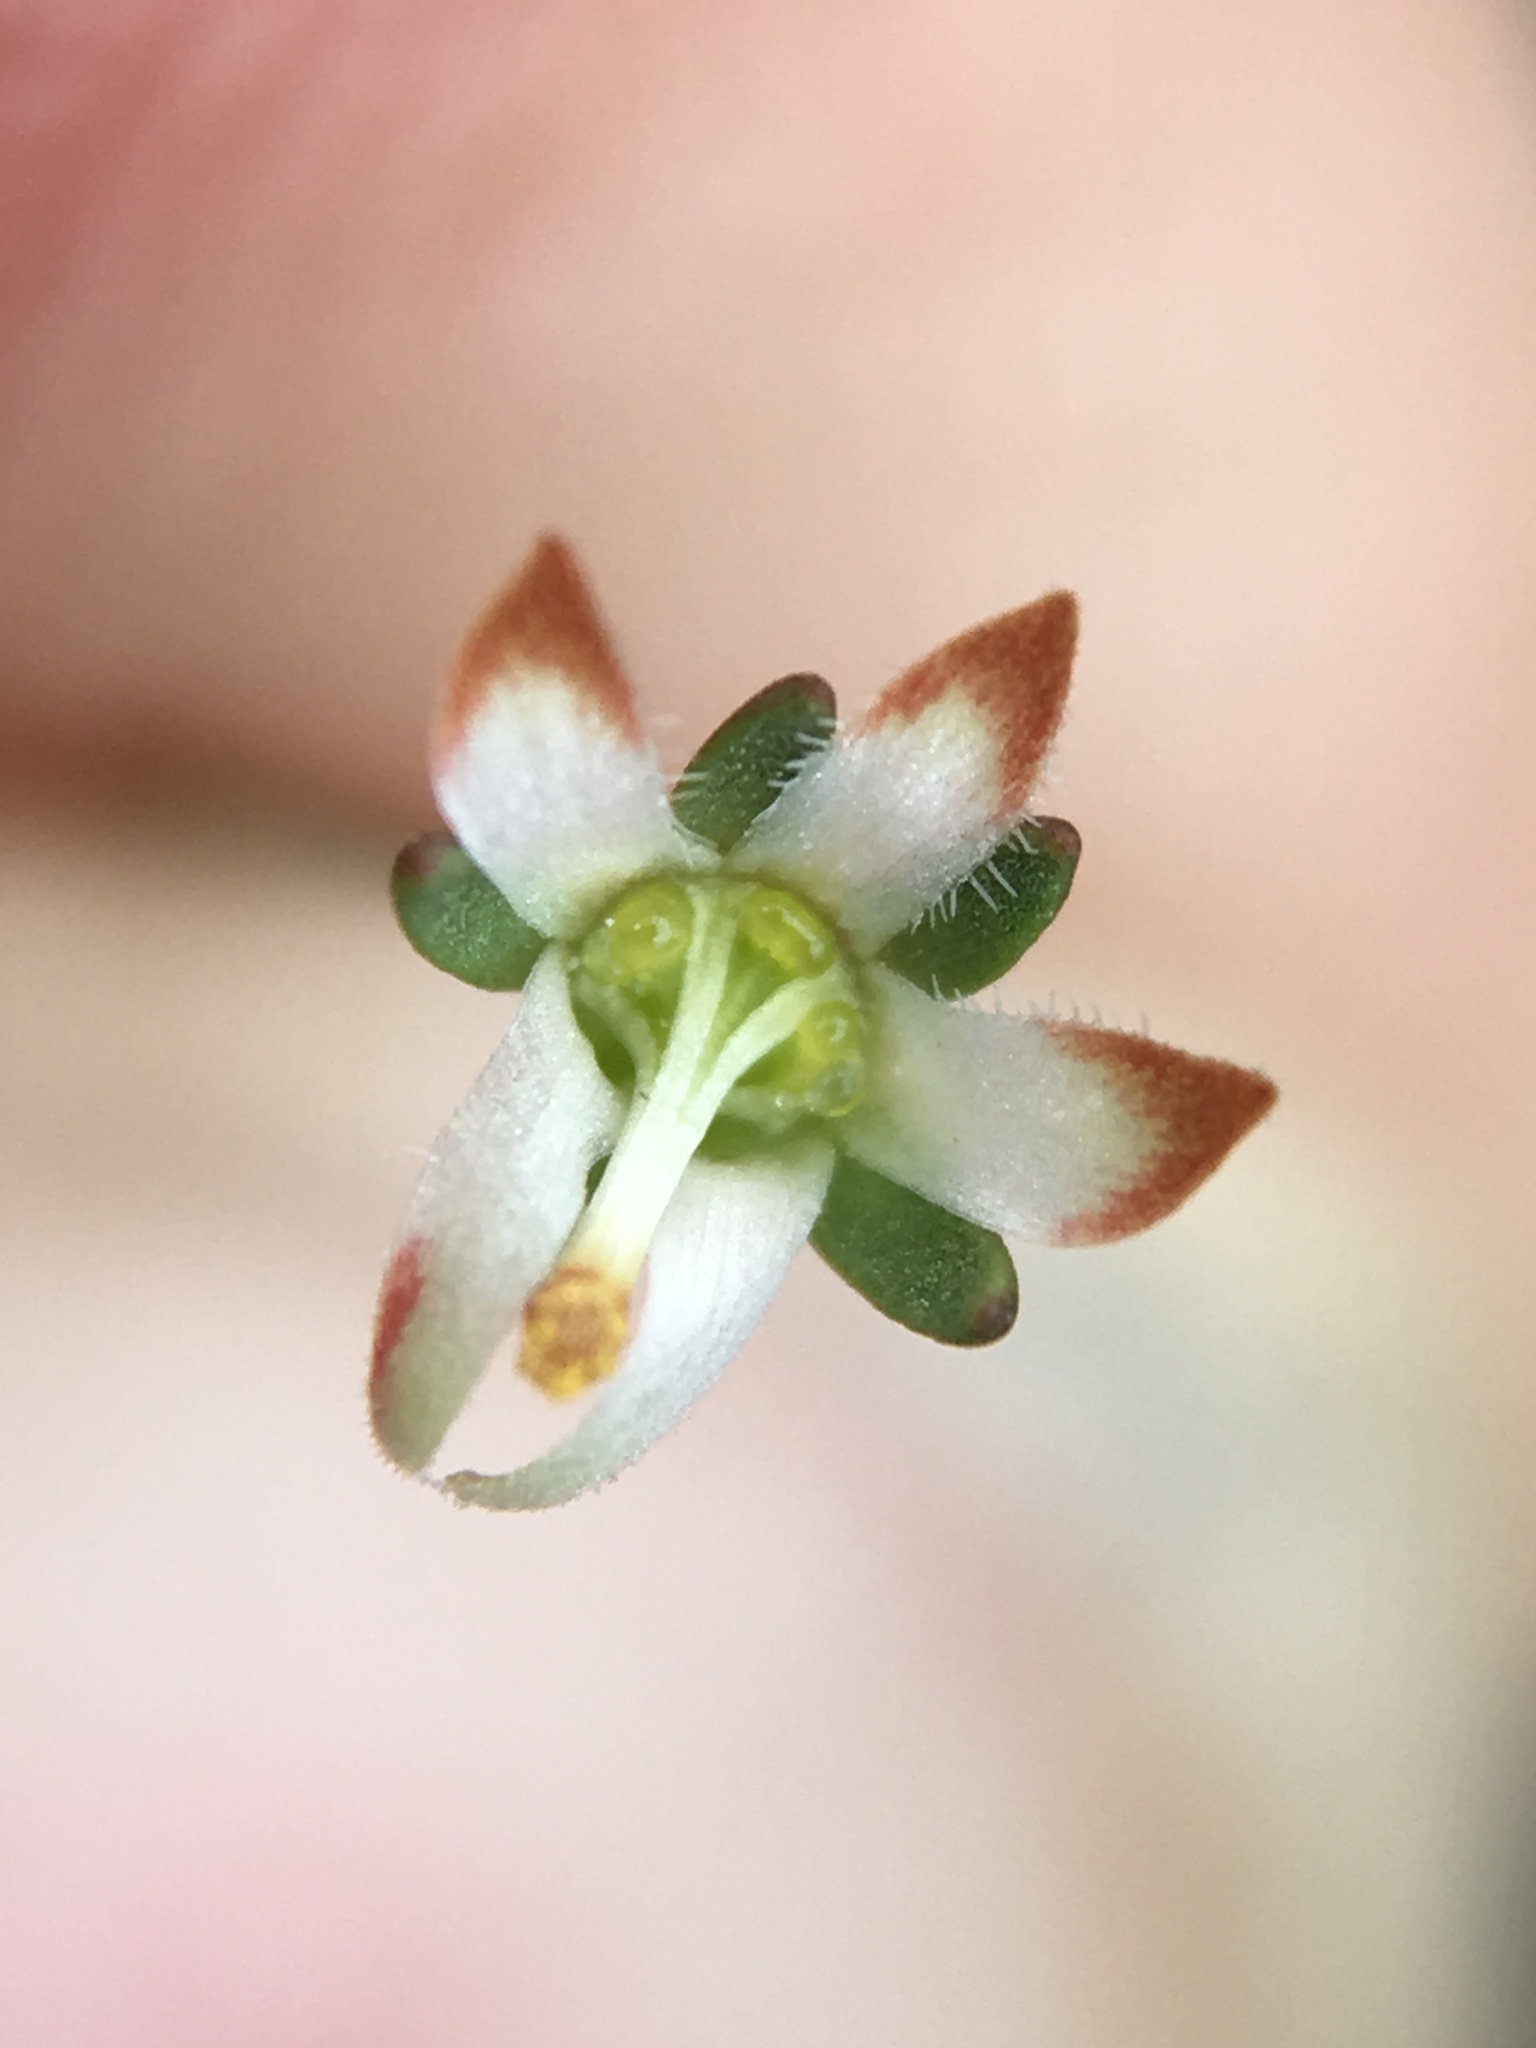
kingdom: Plantae
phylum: Tracheophyta
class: Magnoliopsida
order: Asterales
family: Campanulaceae
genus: Nemacladus
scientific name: Nemacladus morefieldii
